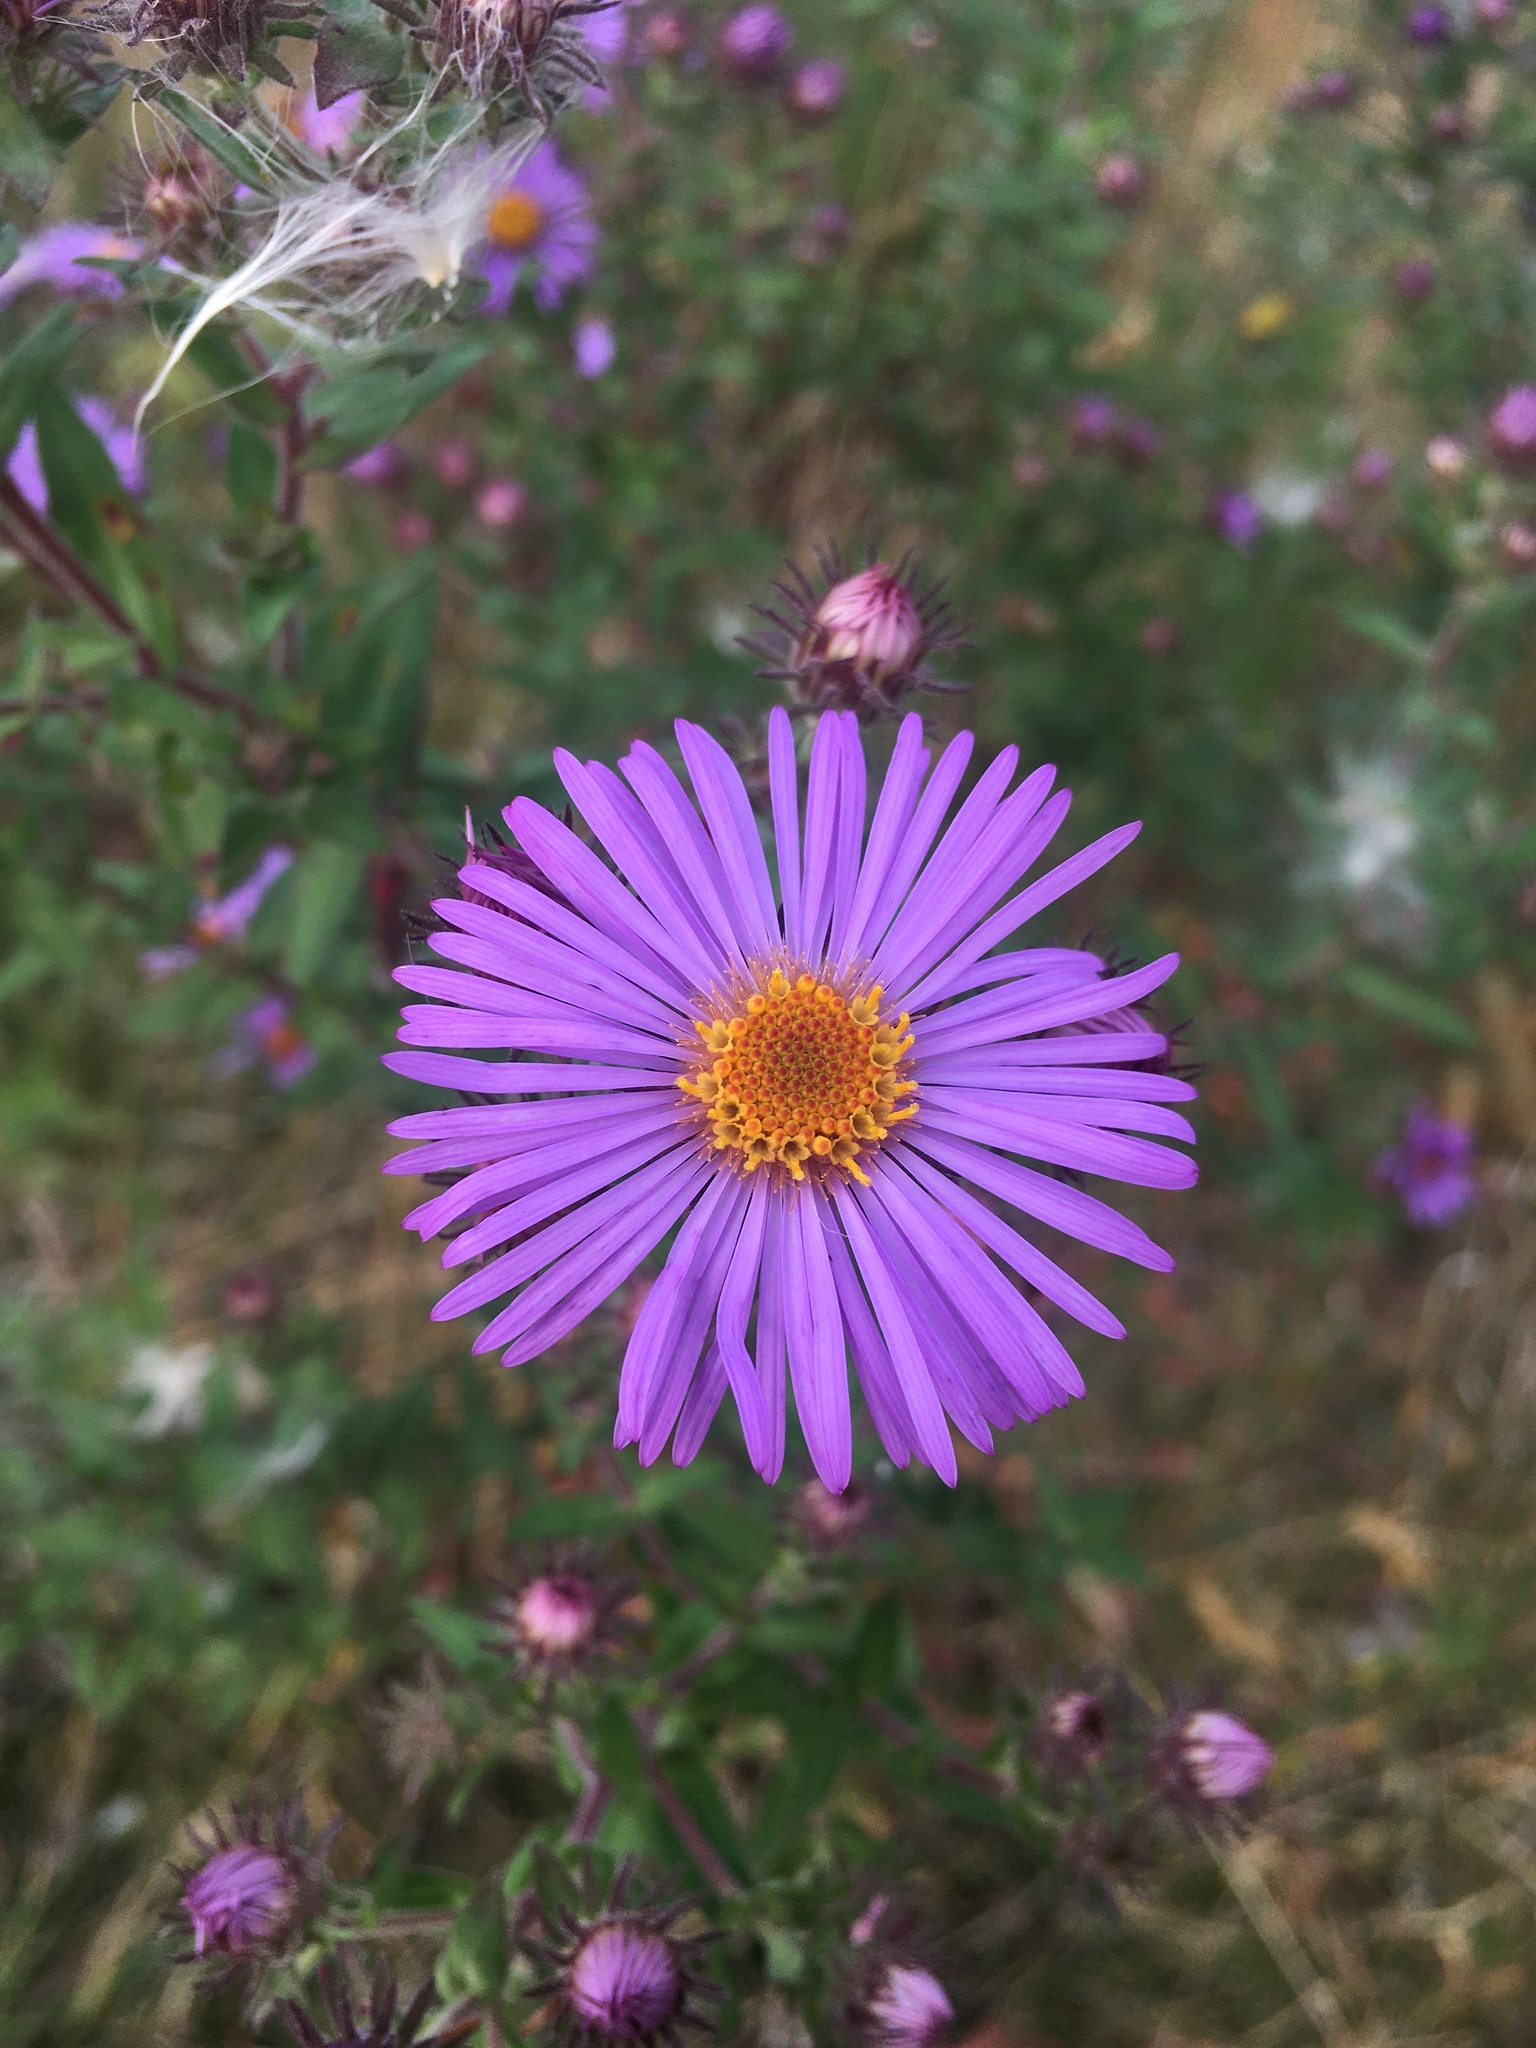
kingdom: Plantae
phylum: Tracheophyta
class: Magnoliopsida
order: Asterales
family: Asteraceae
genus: Symphyotrichum
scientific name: Symphyotrichum novae-angliae
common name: Michaelmas daisy
